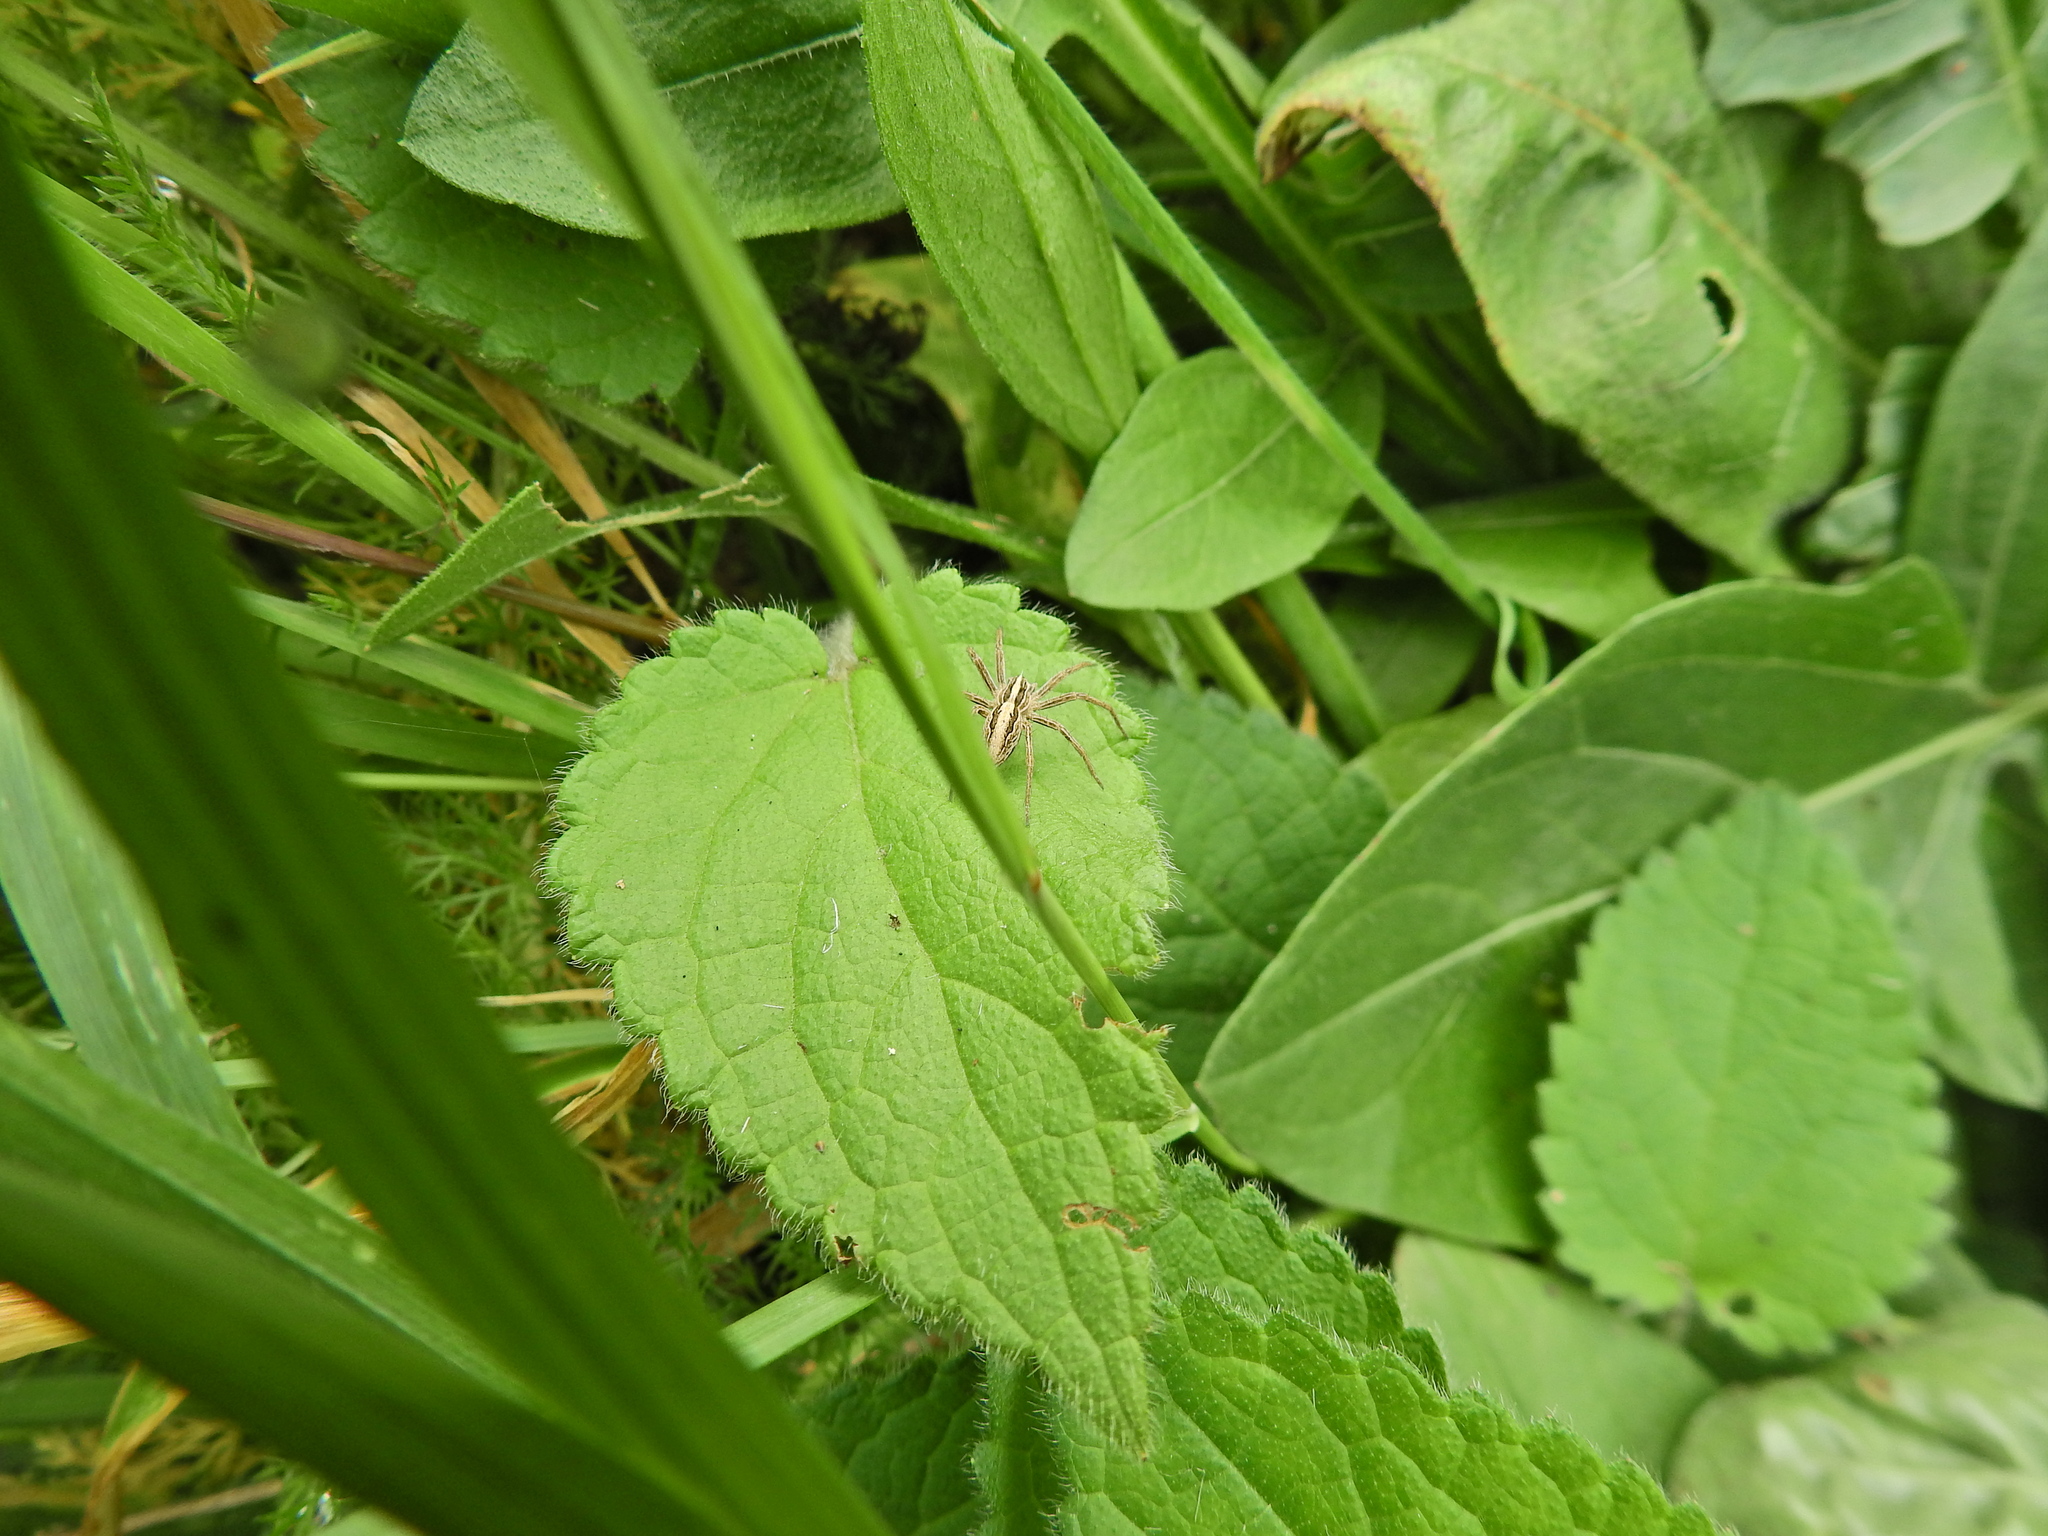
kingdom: Animalia
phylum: Arthropoda
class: Arachnida
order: Araneae
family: Pisauridae
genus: Pisaura
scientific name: Pisaura mirabilis
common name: Tent spider
